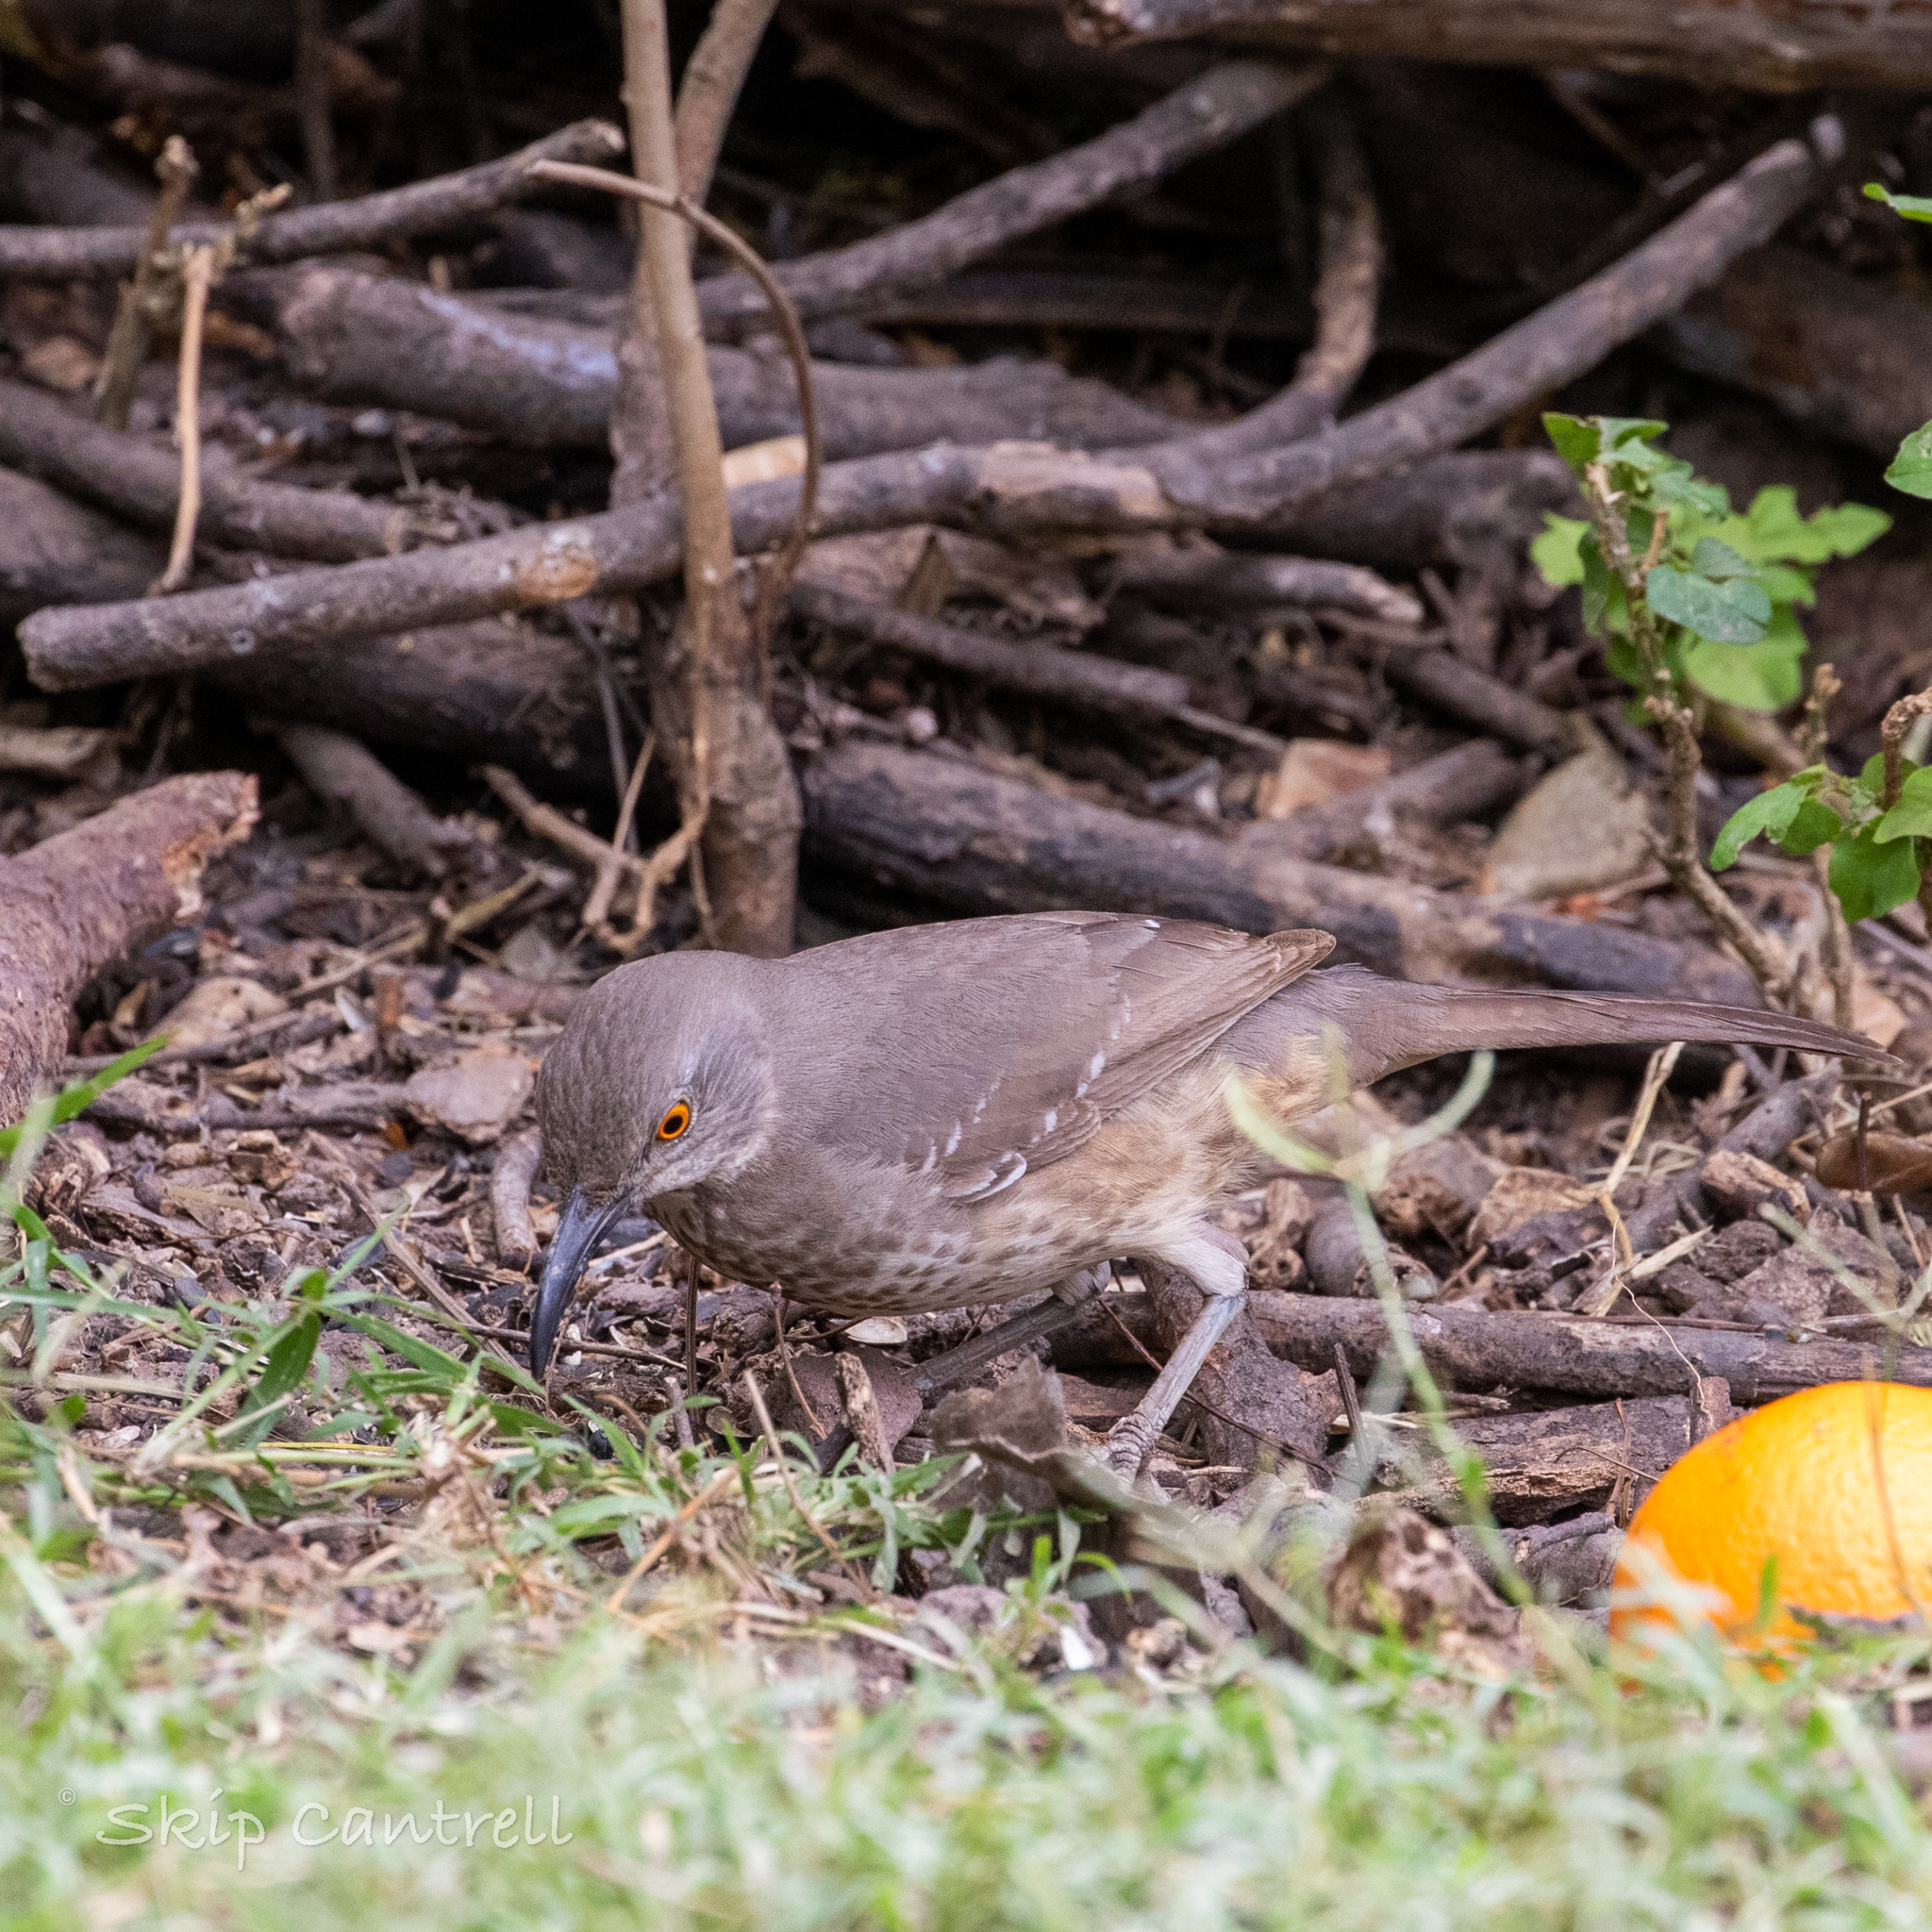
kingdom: Animalia
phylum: Chordata
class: Aves
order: Passeriformes
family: Mimidae
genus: Toxostoma
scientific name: Toxostoma curvirostre
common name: Curve-billed thrasher
